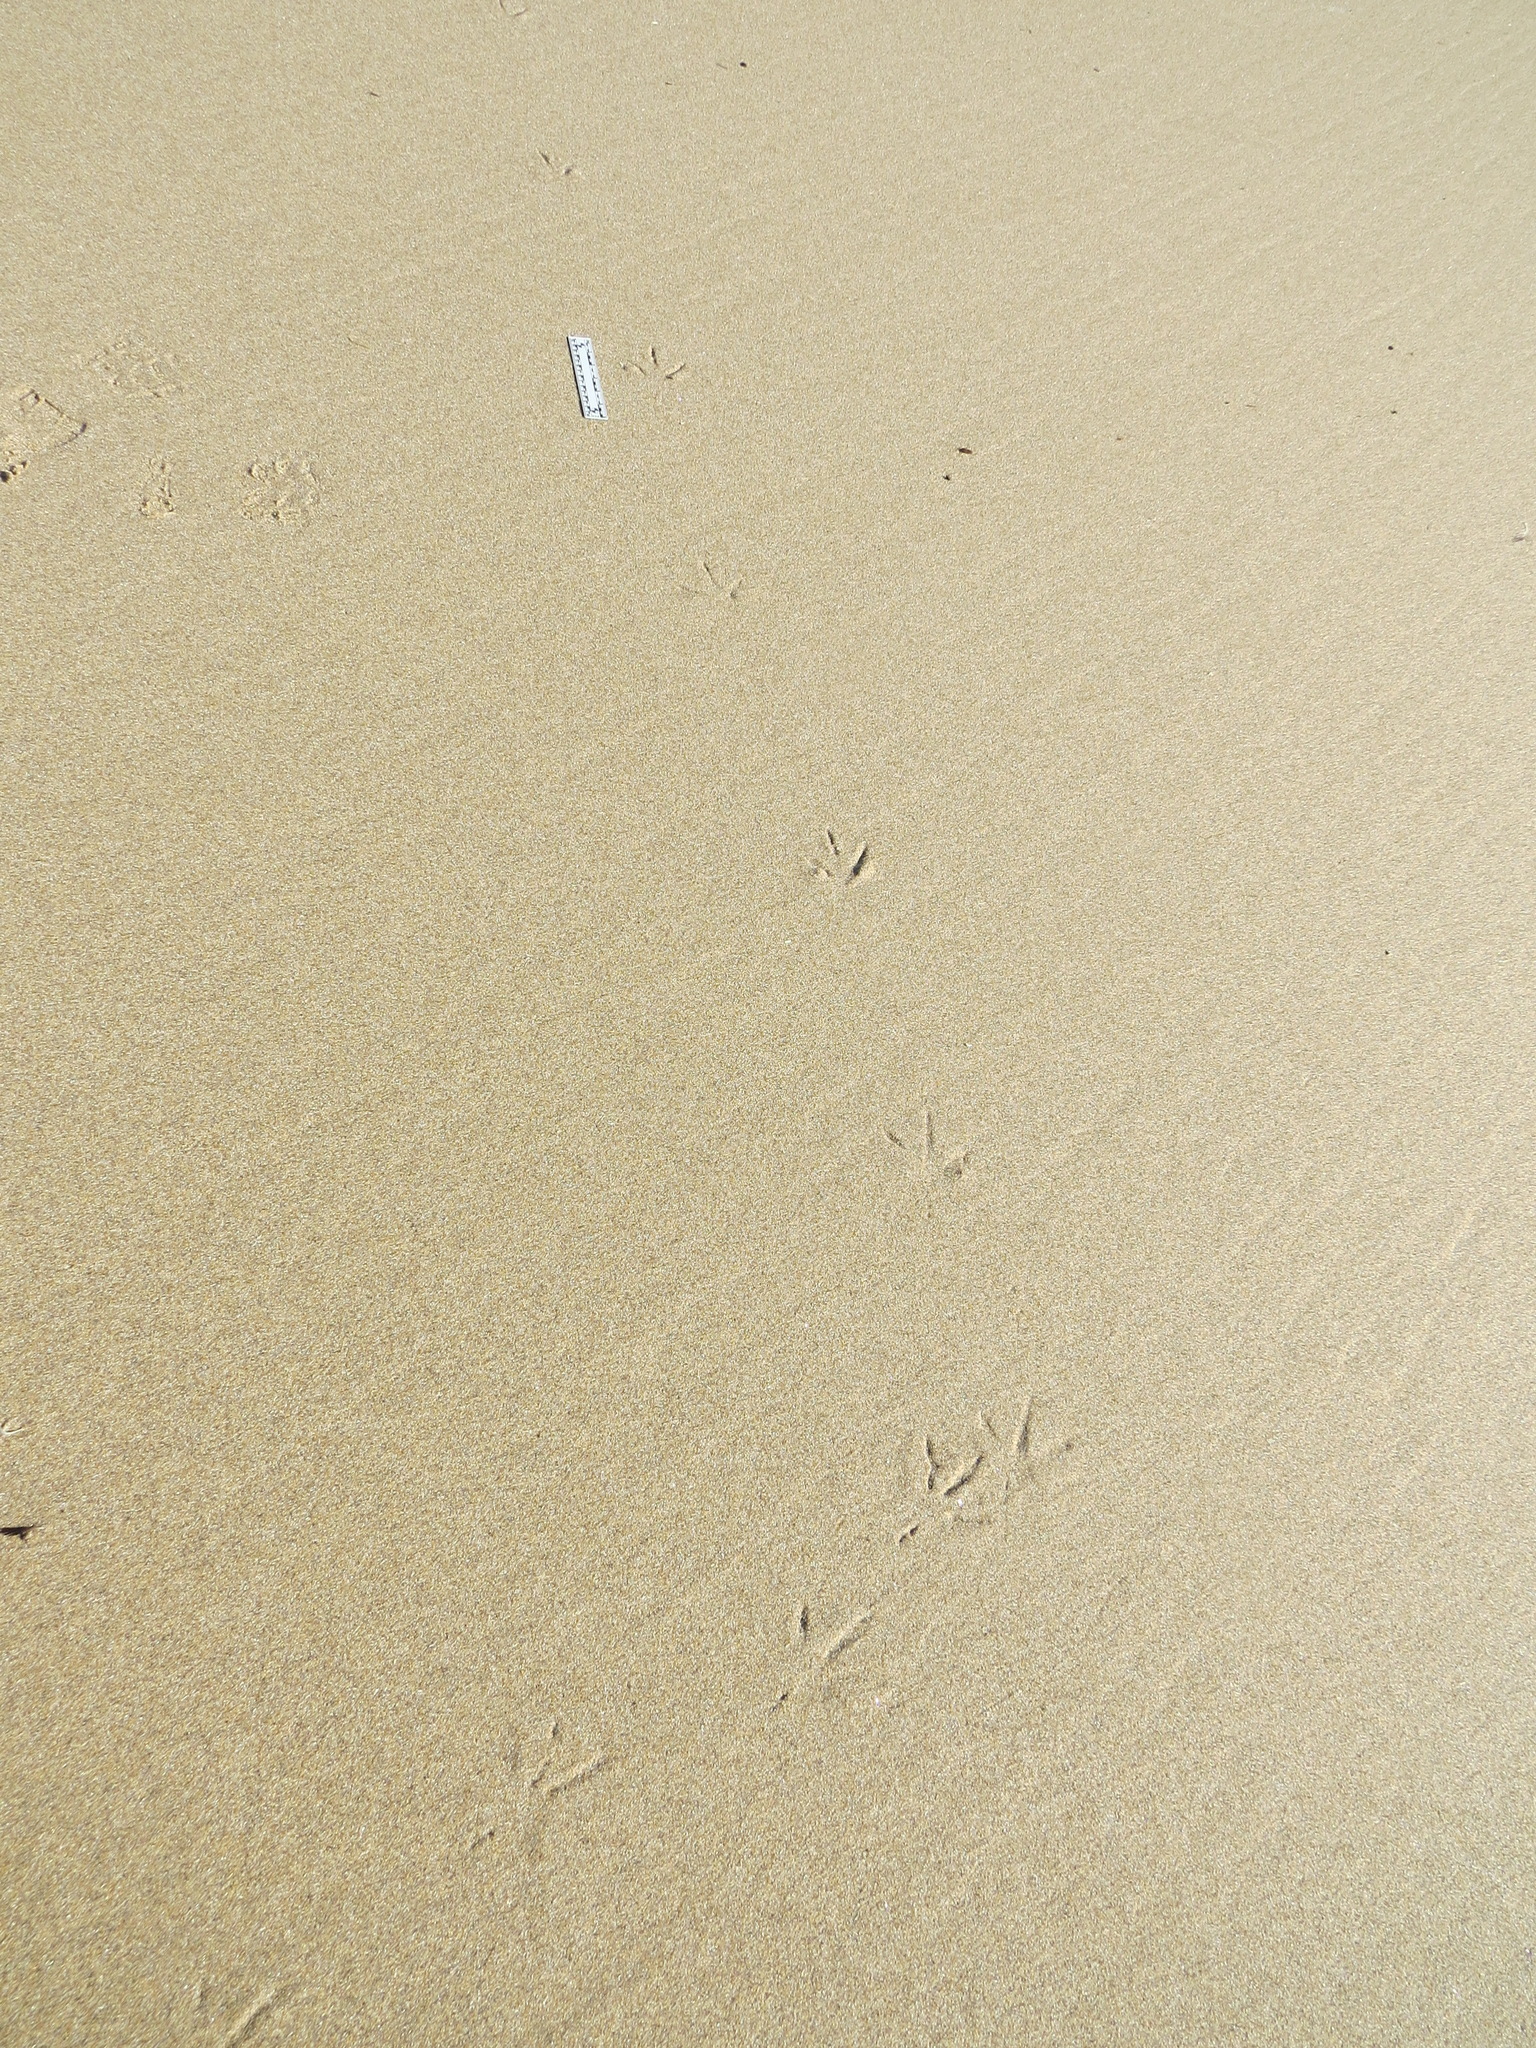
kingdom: Animalia
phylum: Chordata
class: Aves
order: Pelecaniformes
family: Ardeidae
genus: Egretta
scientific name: Egretta thula
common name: Snowy egret
